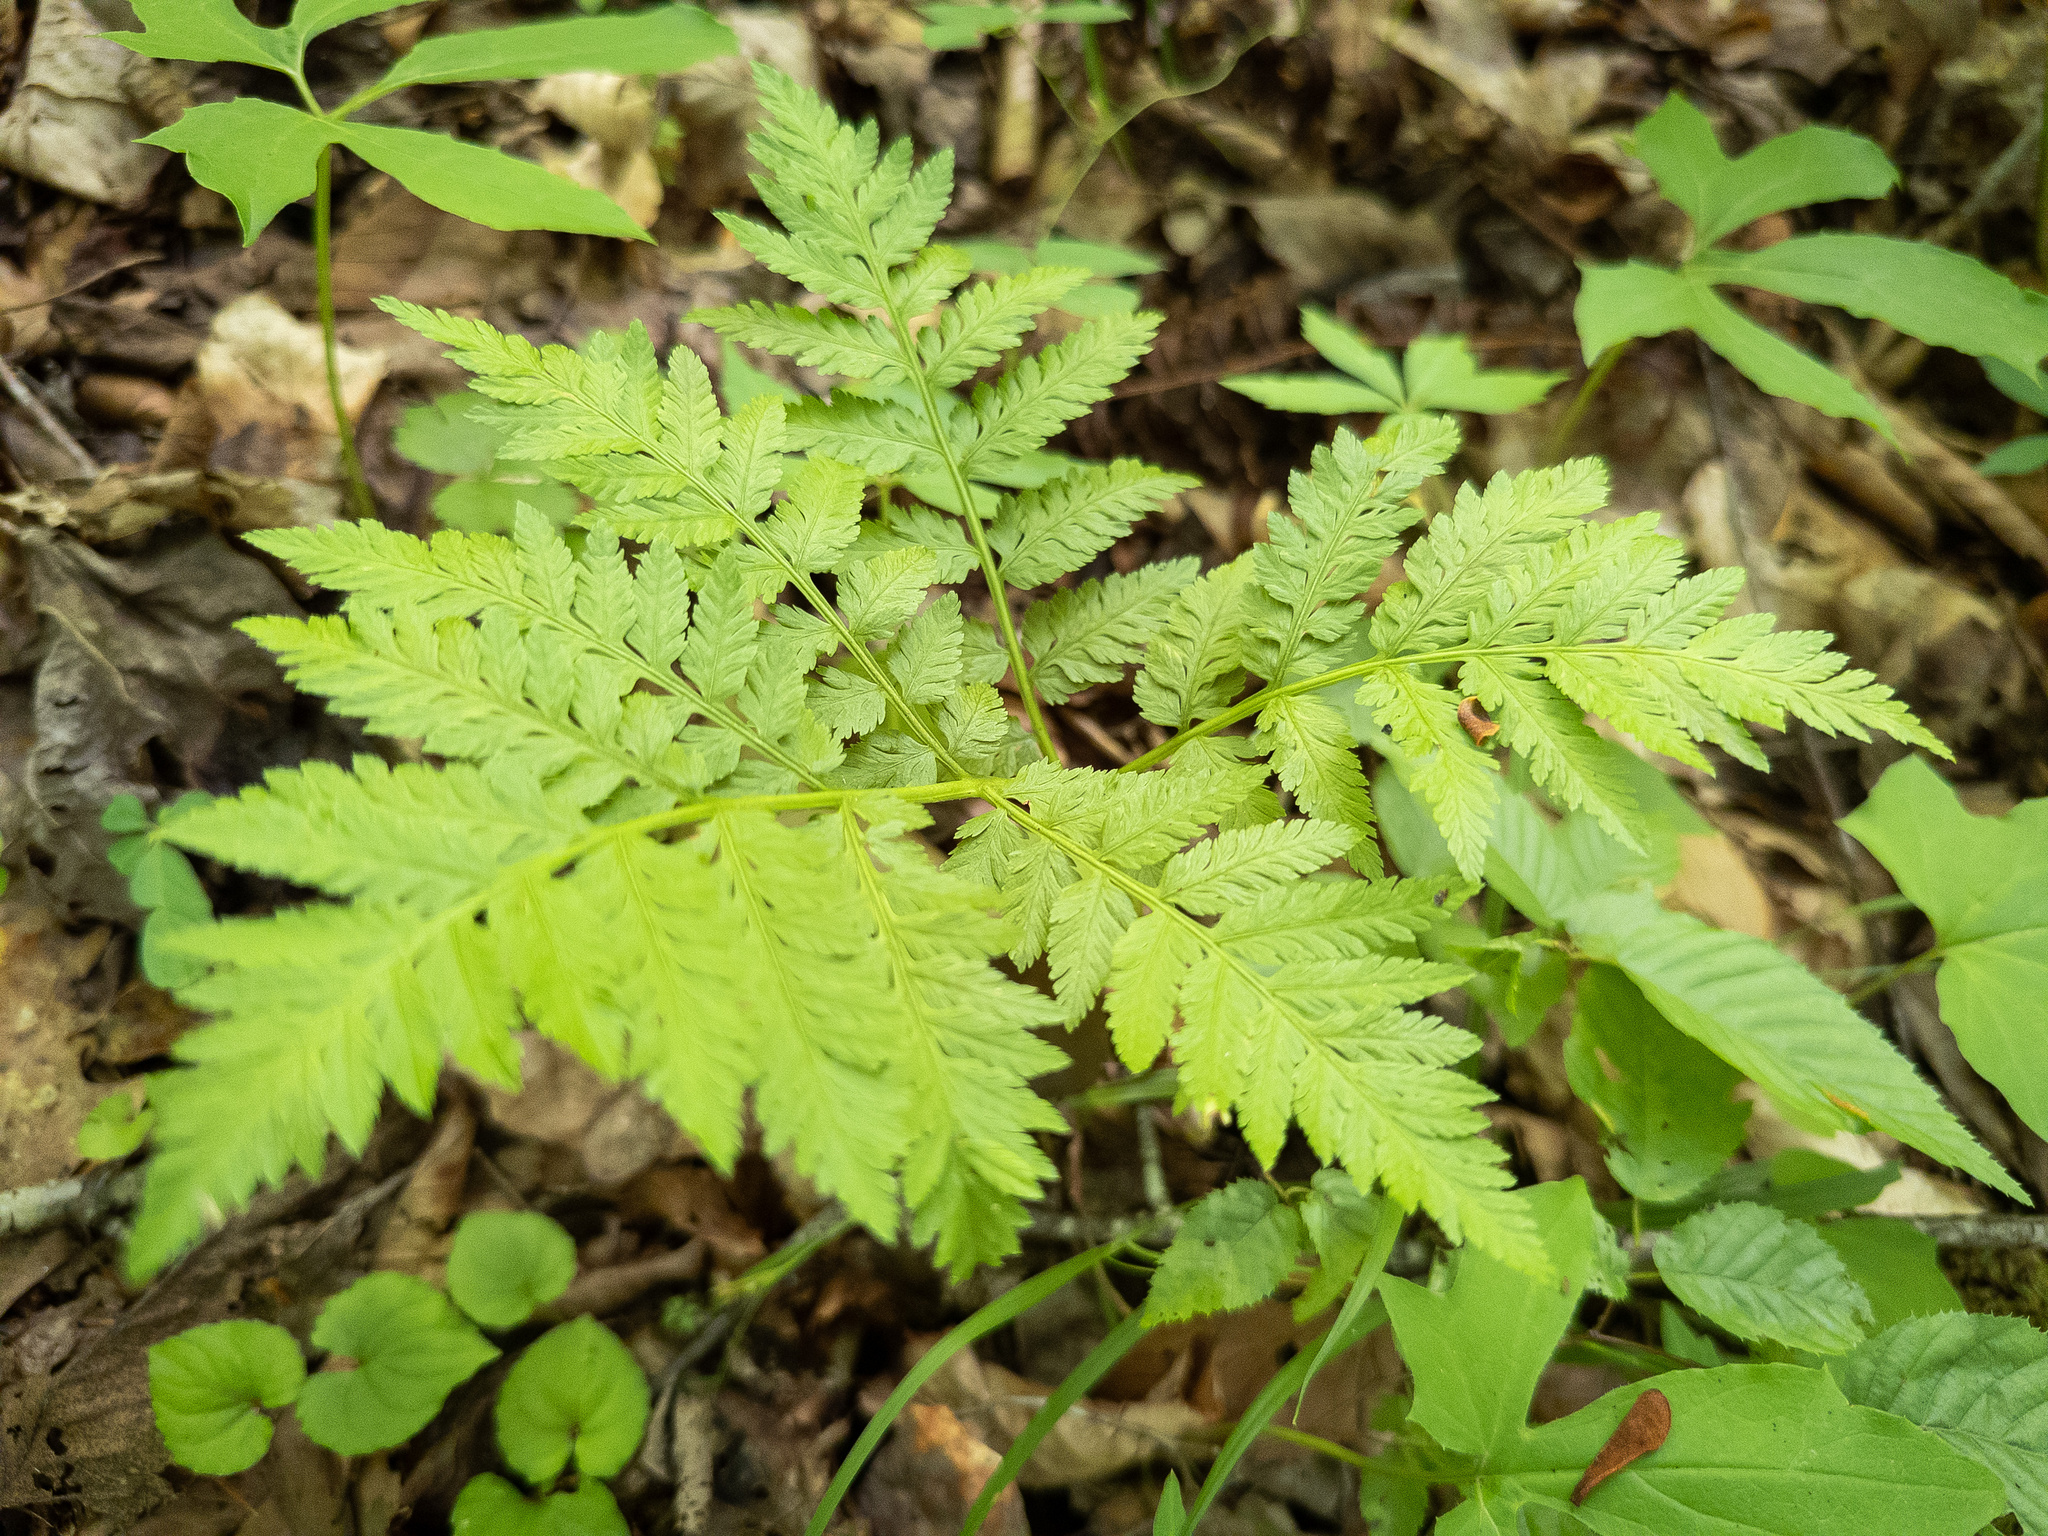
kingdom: Plantae
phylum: Tracheophyta
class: Polypodiopsida
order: Ophioglossales
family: Ophioglossaceae
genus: Botrypus
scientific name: Botrypus virginianus
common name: Common grapefern
